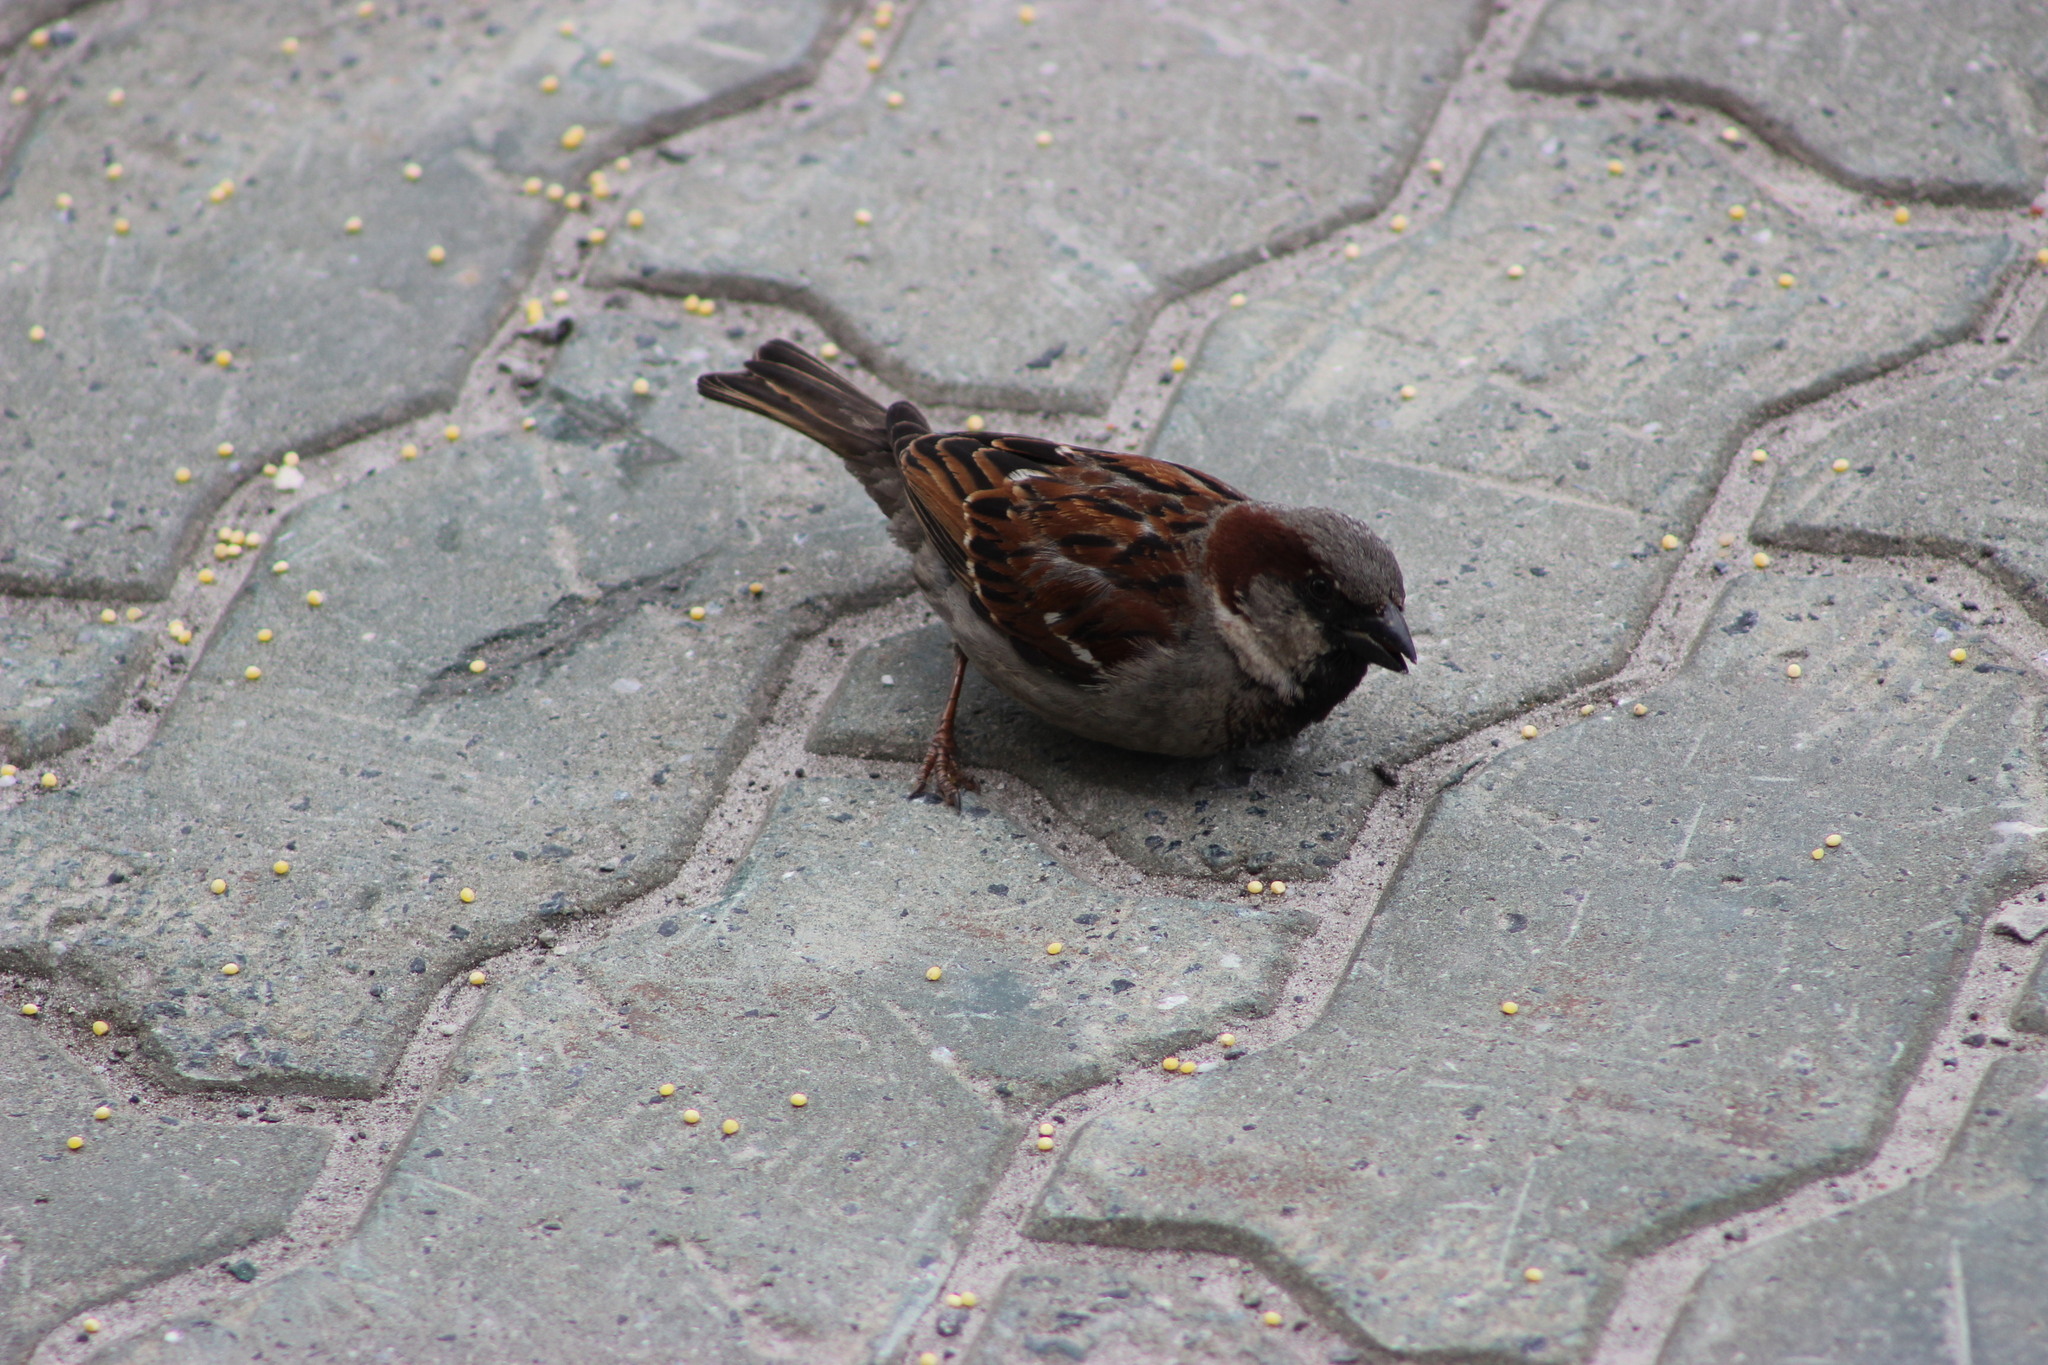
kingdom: Animalia
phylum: Chordata
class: Aves
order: Passeriformes
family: Passeridae
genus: Passer
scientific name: Passer domesticus
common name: House sparrow
